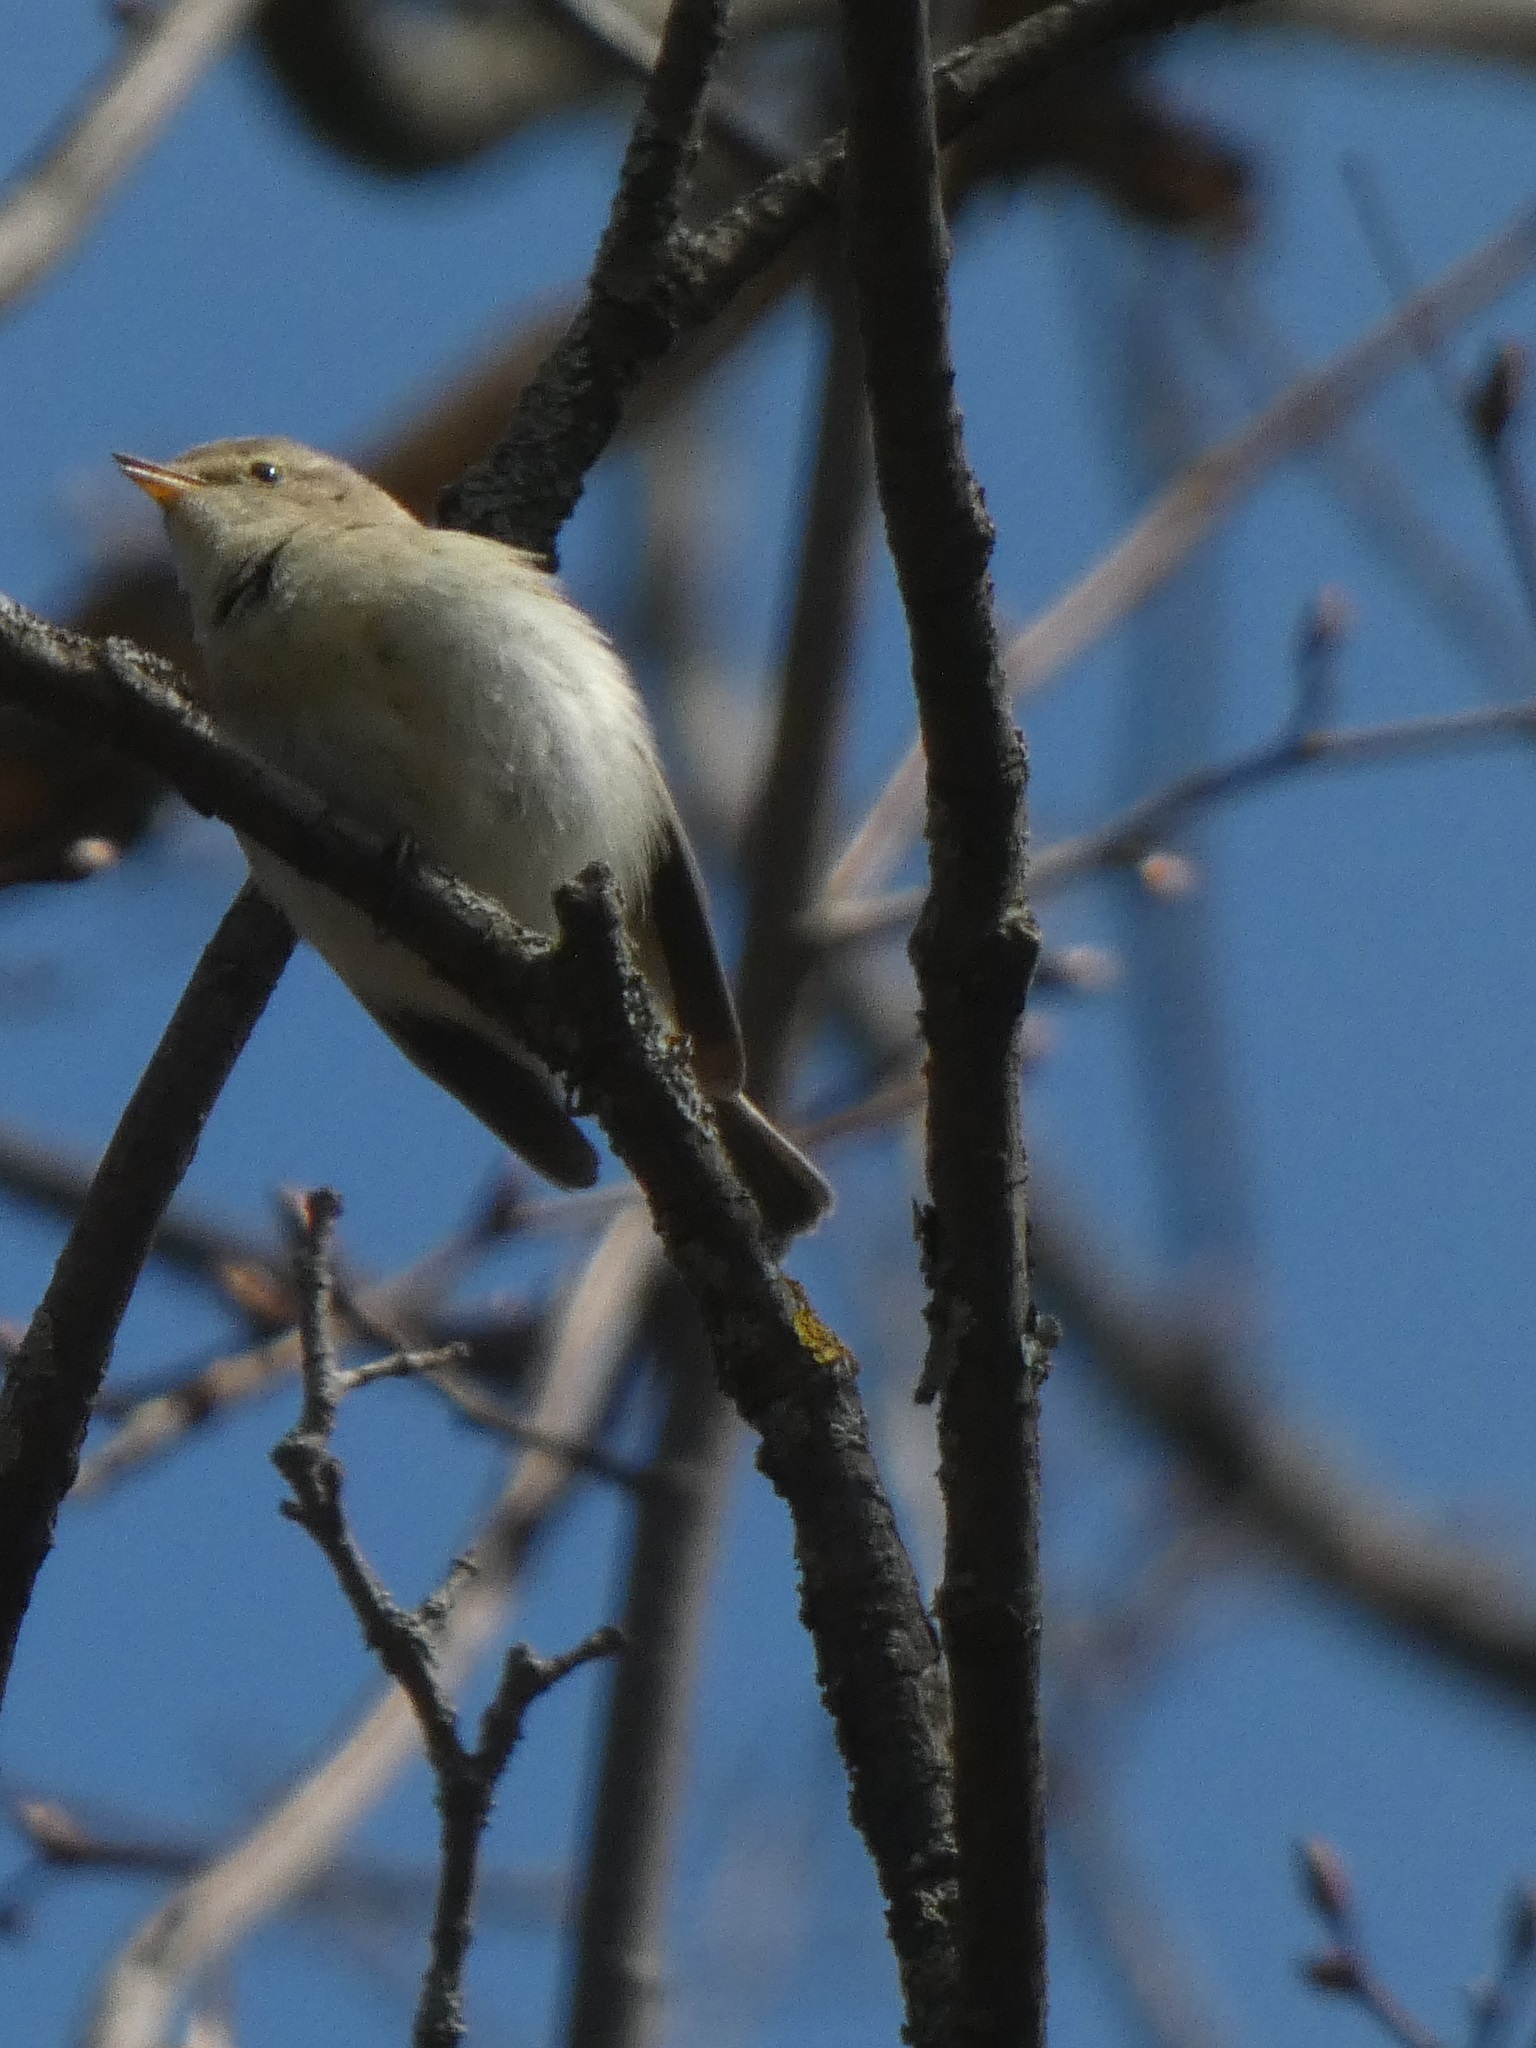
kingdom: Animalia
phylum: Chordata
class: Aves
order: Passeriformes
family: Phylloscopidae
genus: Phylloscopus
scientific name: Phylloscopus collybita
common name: Common chiffchaff
